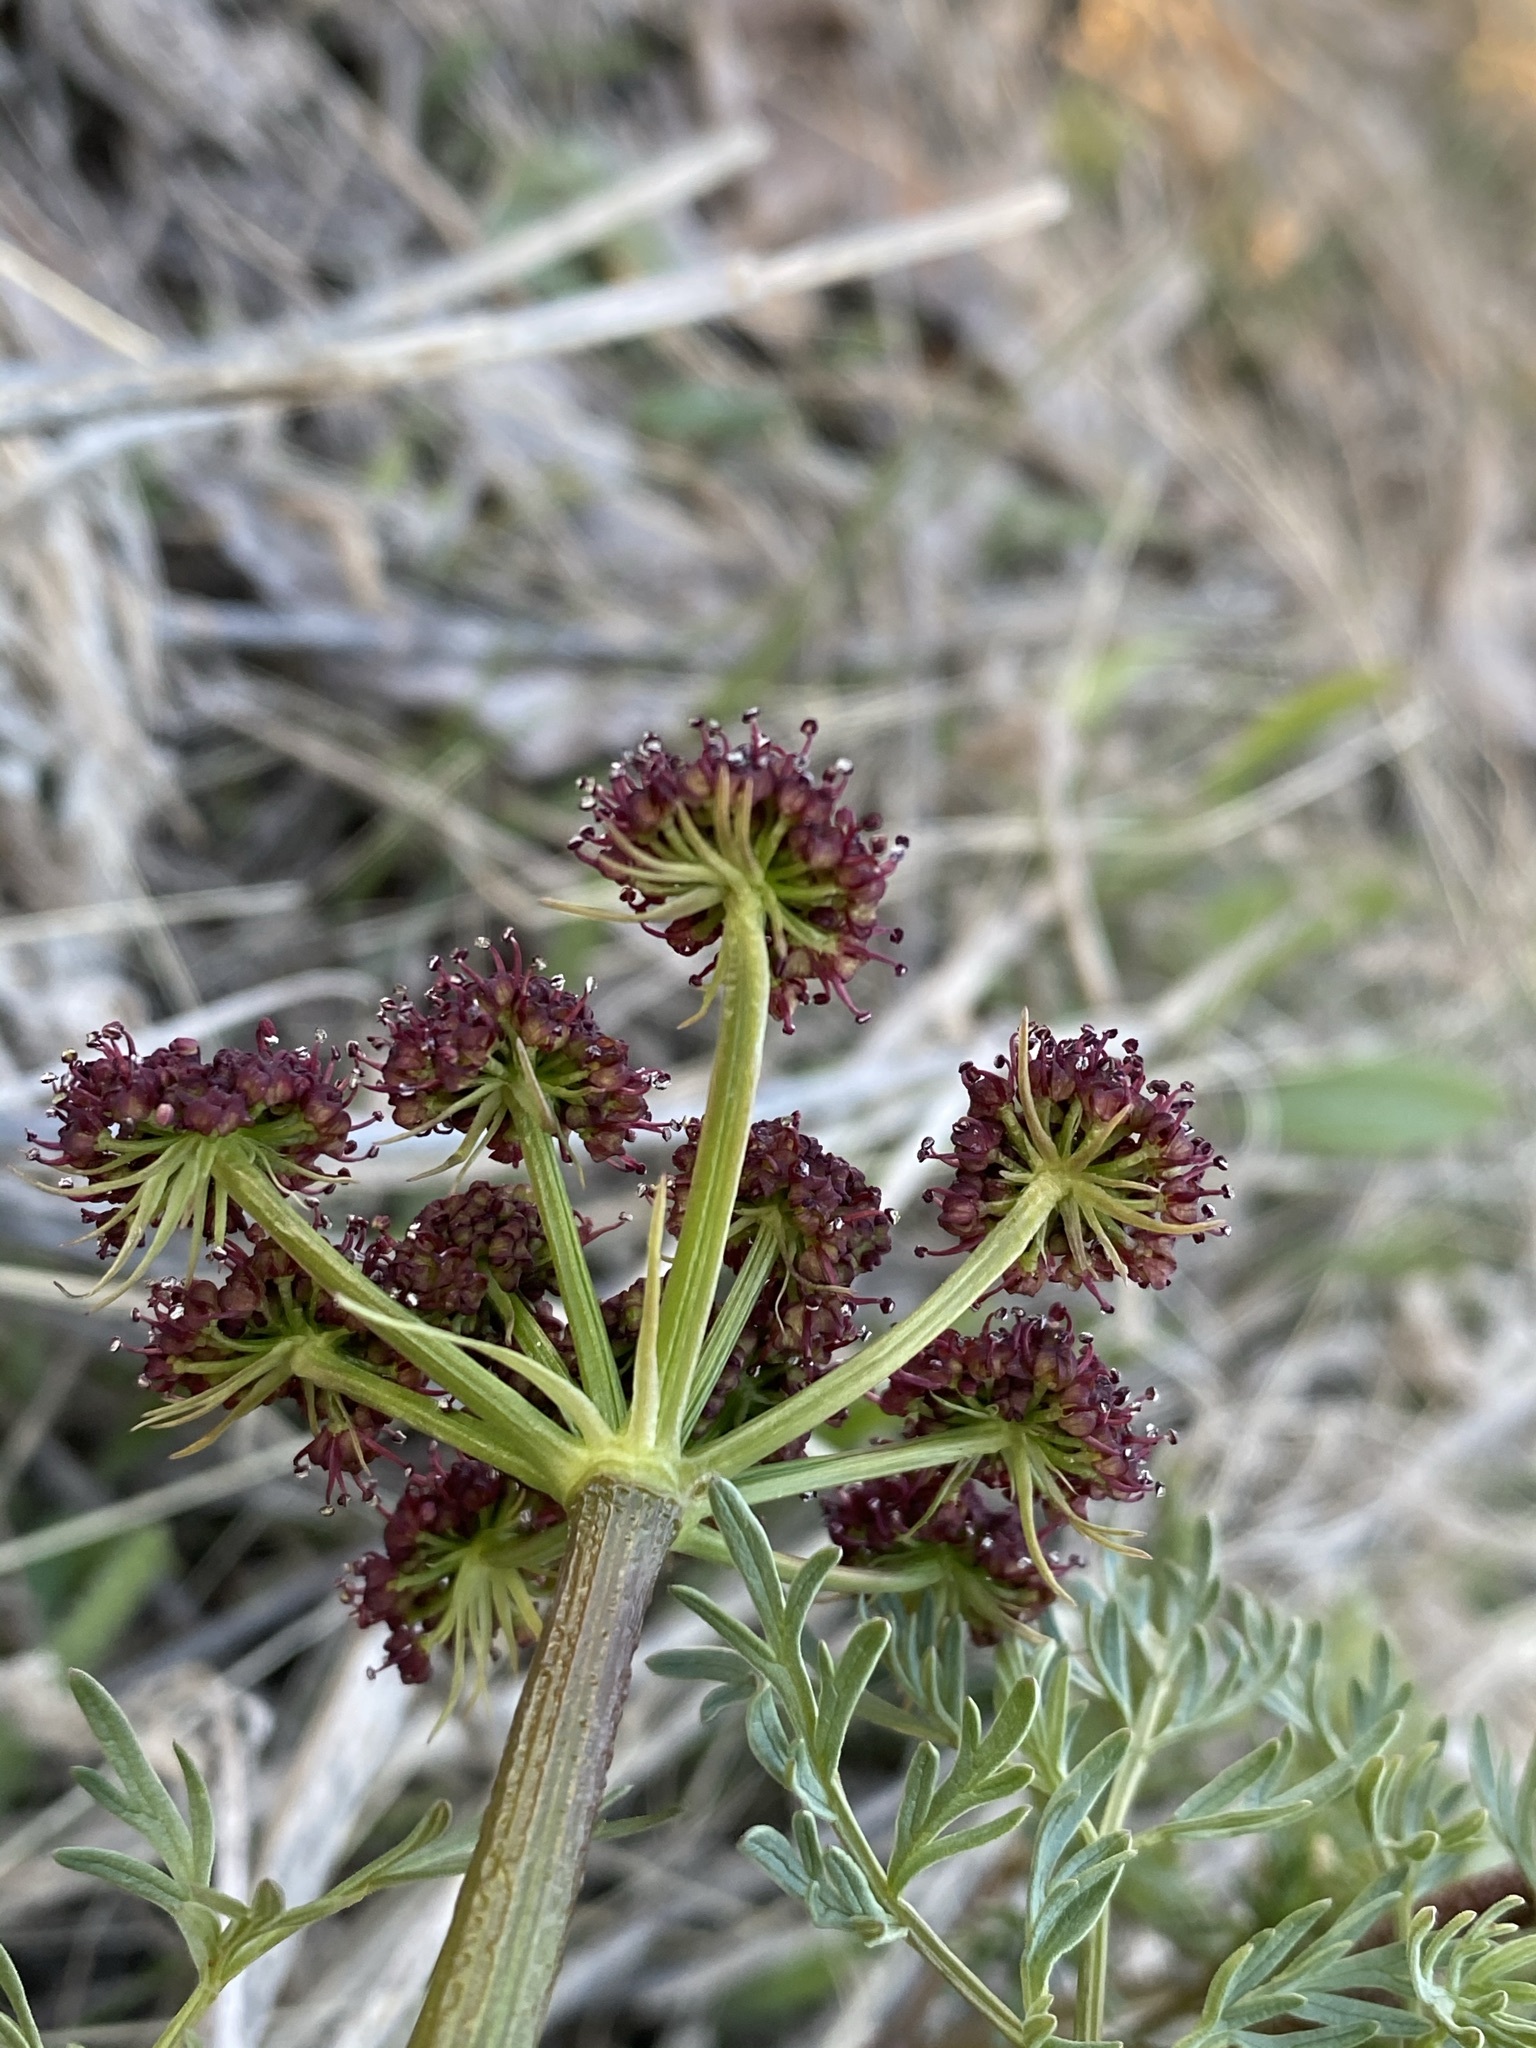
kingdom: Plantae
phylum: Tracheophyta
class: Magnoliopsida
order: Apiales
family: Apiaceae
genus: Lomatium
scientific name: Lomatium dissectum
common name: Lomatium
